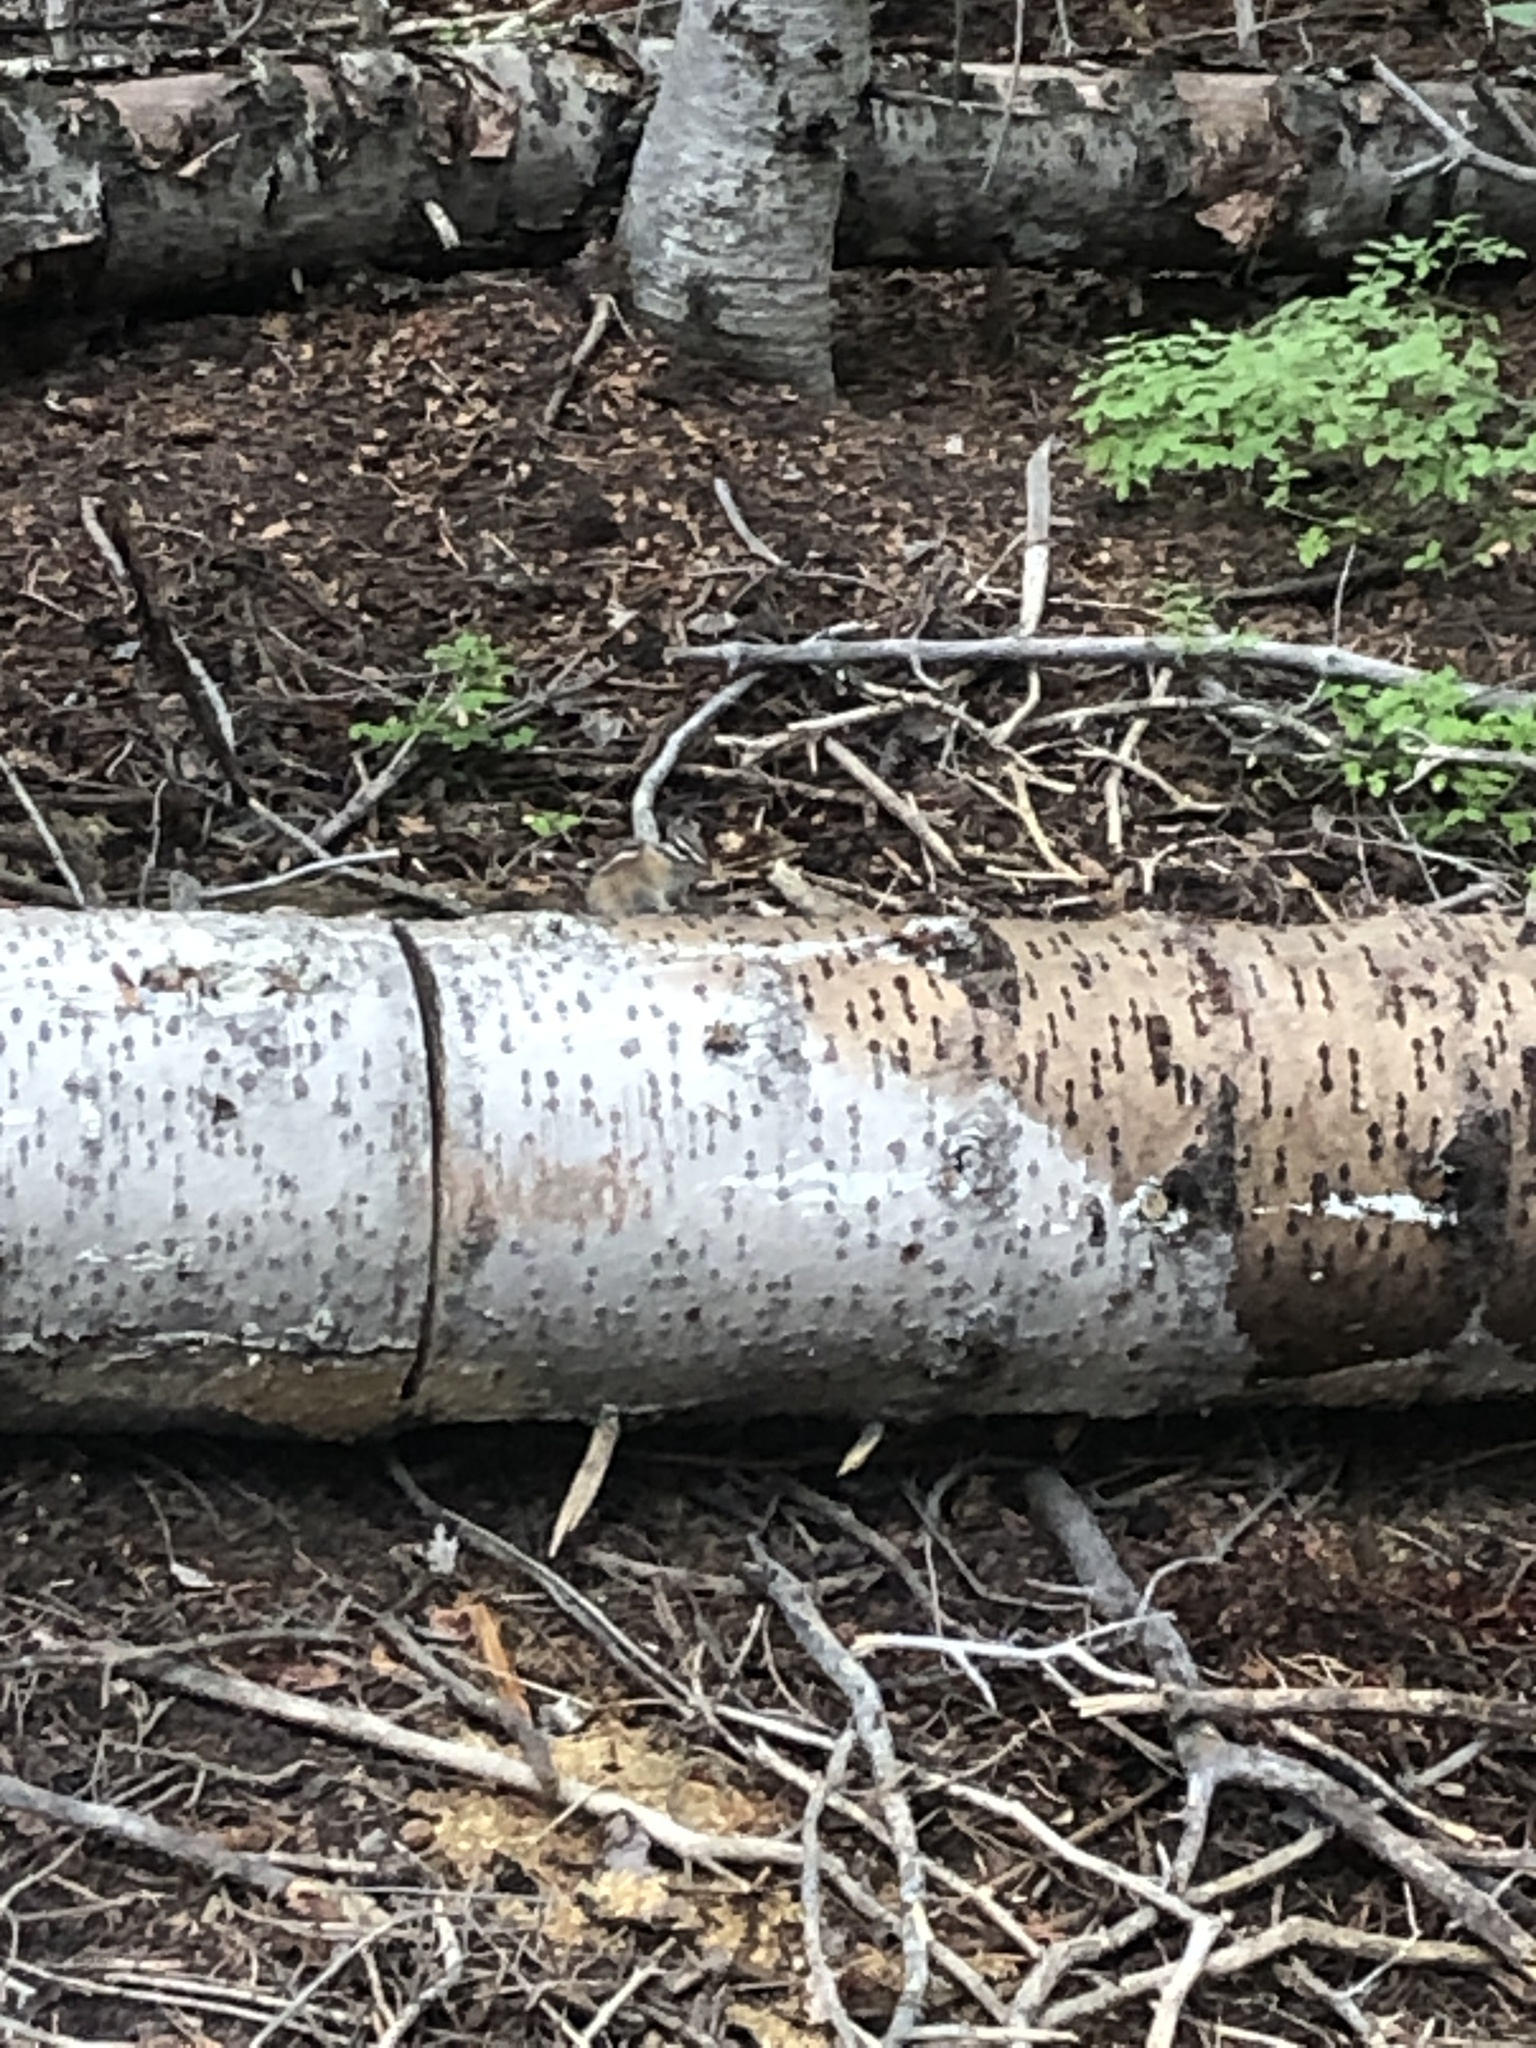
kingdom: Animalia
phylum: Chordata
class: Mammalia
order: Rodentia
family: Sciuridae
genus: Tamias
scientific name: Tamias minimus
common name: Least chipmunk
